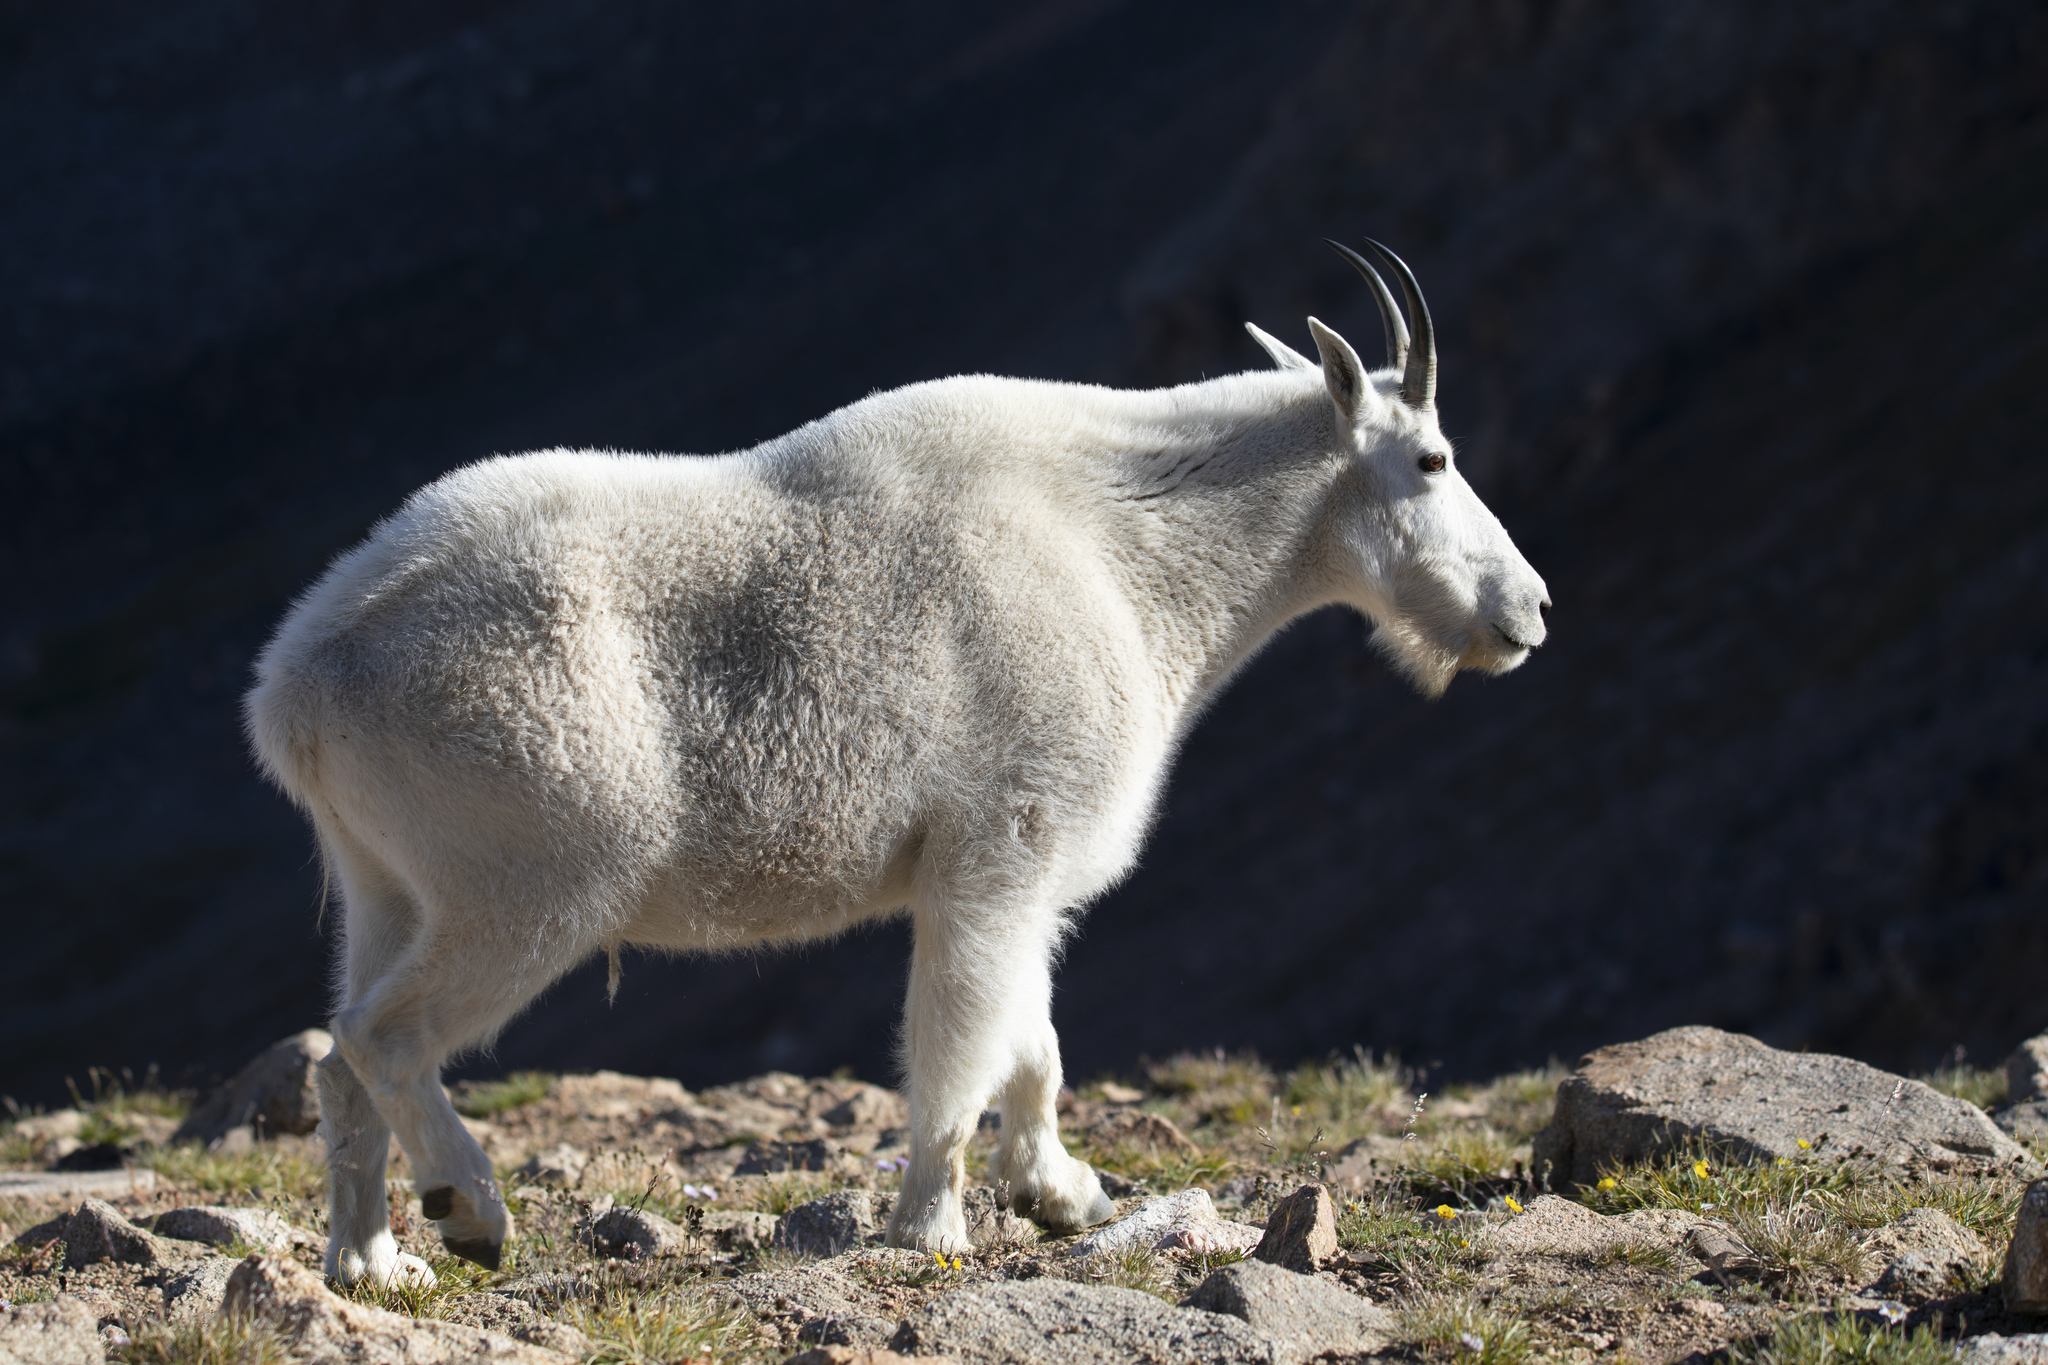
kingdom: Animalia
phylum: Chordata
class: Mammalia
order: Artiodactyla
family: Bovidae
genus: Oreamnos
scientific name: Oreamnos americanus
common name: Mountain goat
